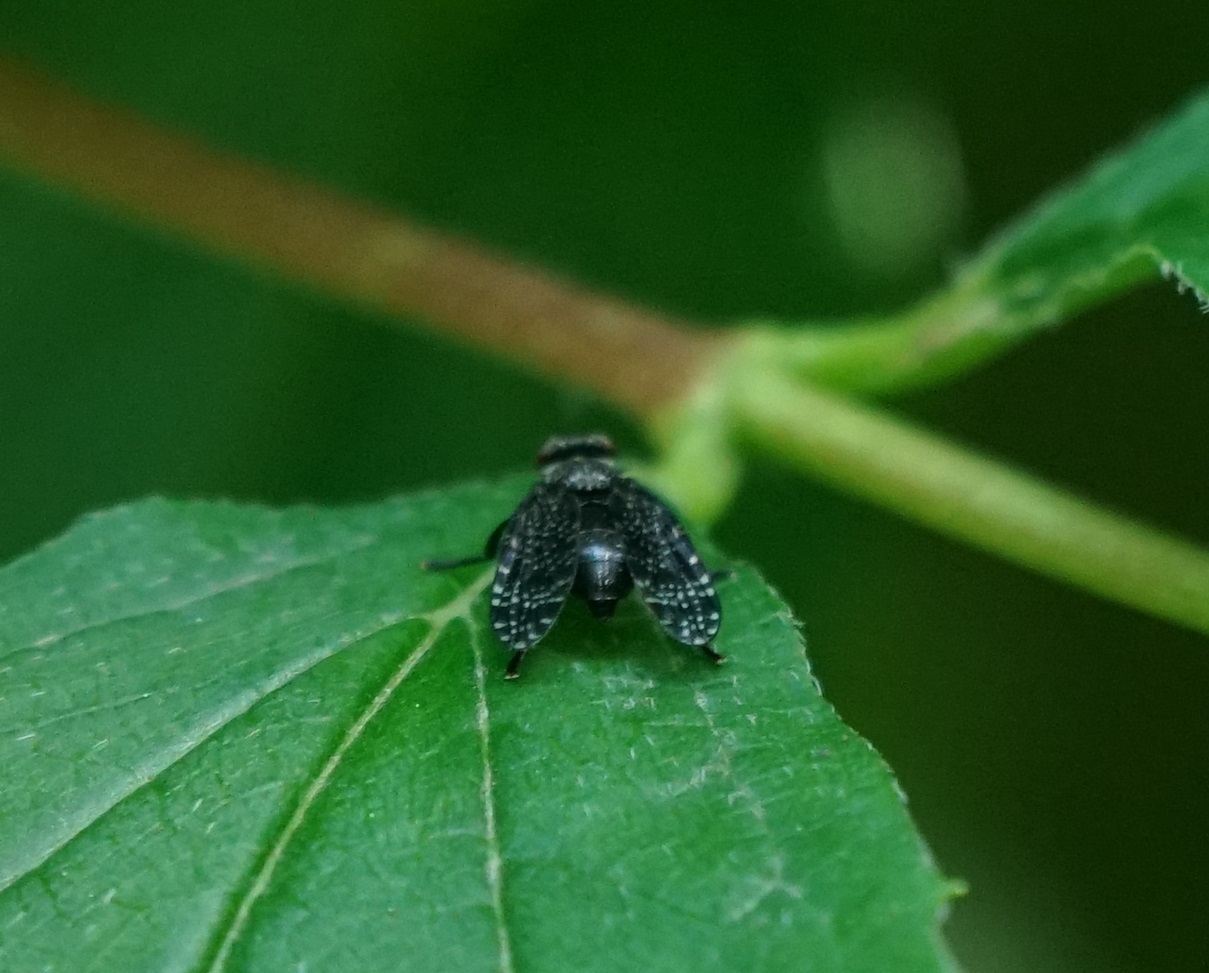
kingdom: Animalia
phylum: Arthropoda
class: Insecta
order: Diptera
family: Platystomatidae
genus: Platystoma
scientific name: Platystoma seminationis
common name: Fly
